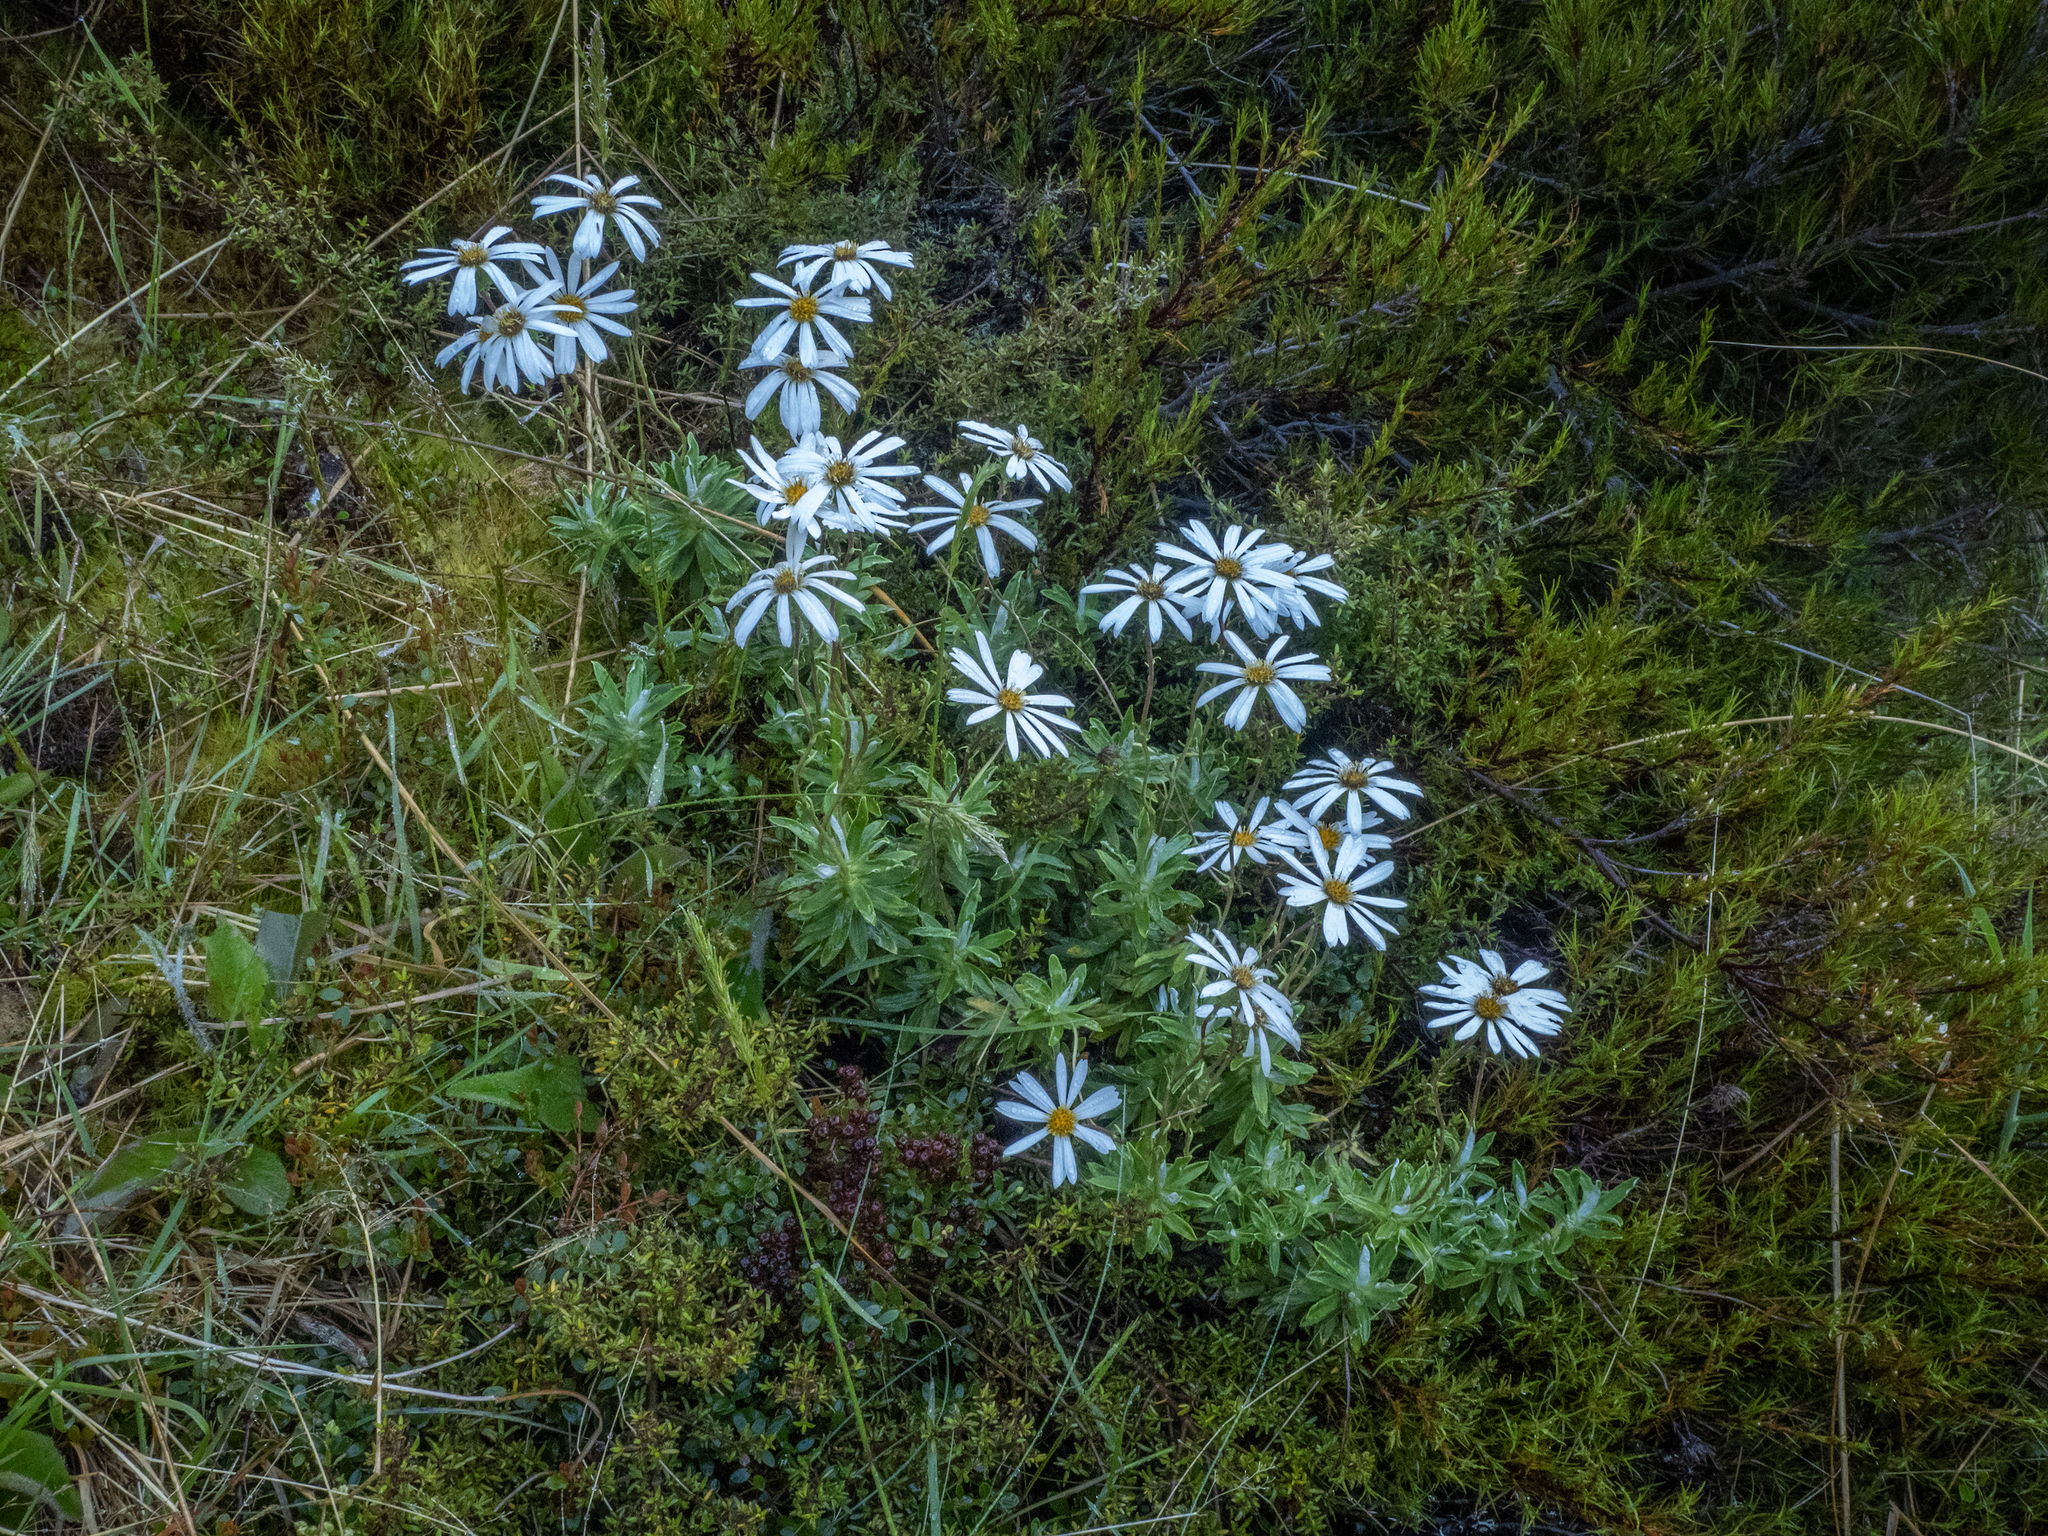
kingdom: Plantae
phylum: Tracheophyta
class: Magnoliopsida
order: Asterales
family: Asteraceae
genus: Celmisia
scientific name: Celmisia angustifolia
